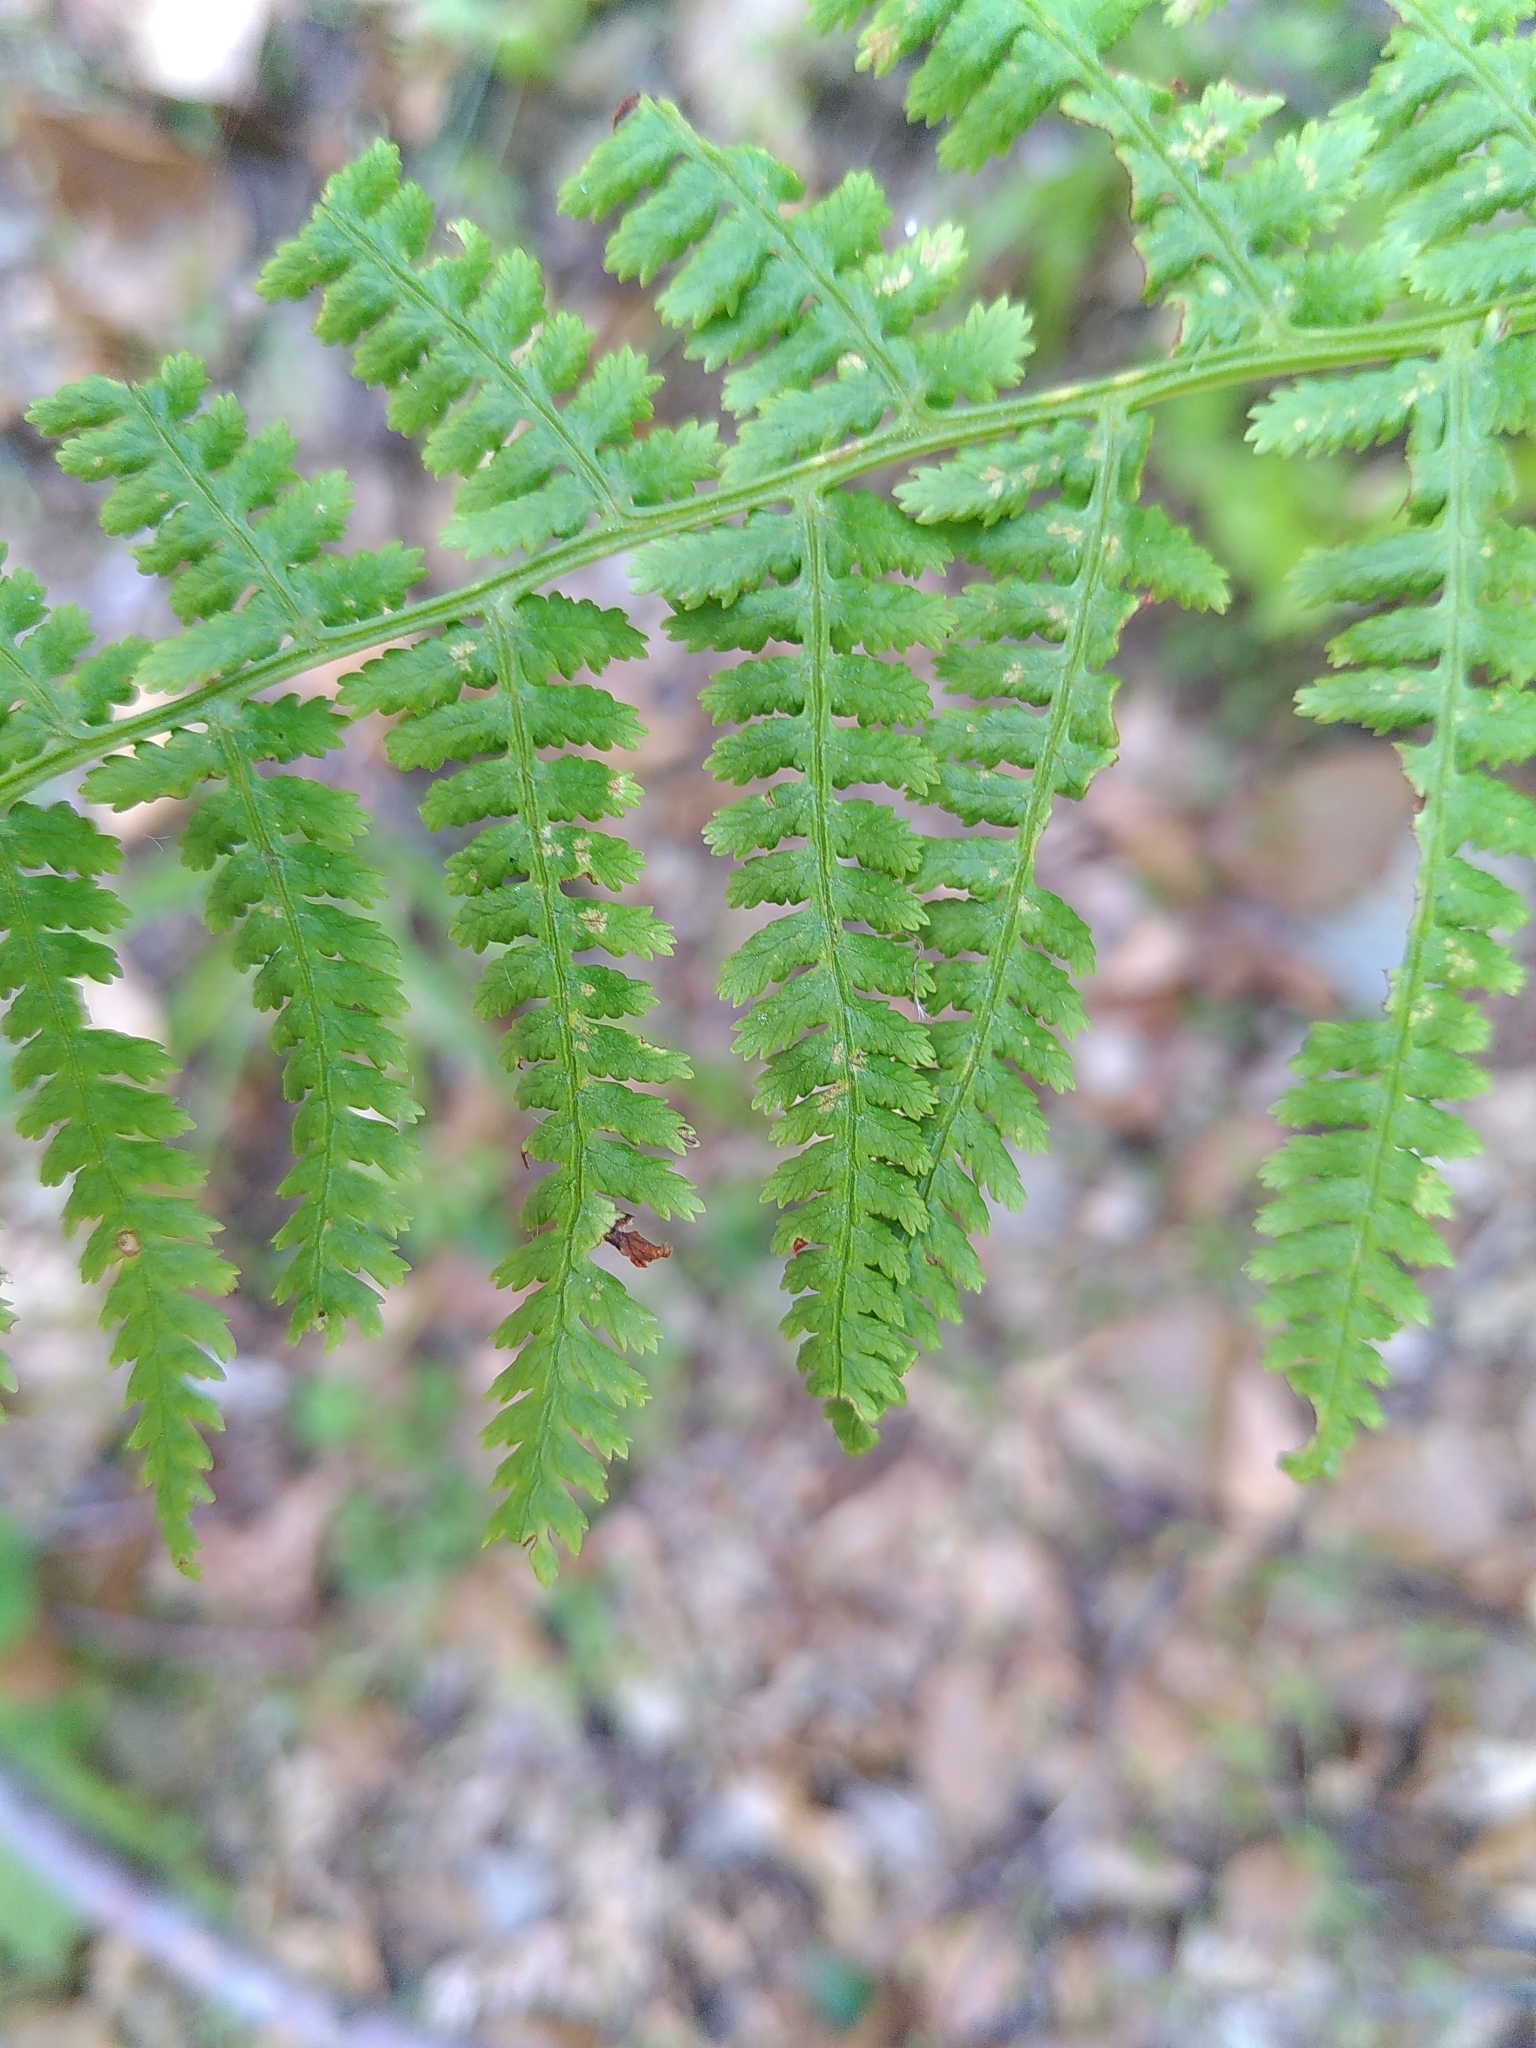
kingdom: Plantae
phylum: Tracheophyta
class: Polypodiopsida
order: Polypodiales
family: Athyriaceae
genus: Athyrium
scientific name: Athyrium filix-femina
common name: Lady fern
